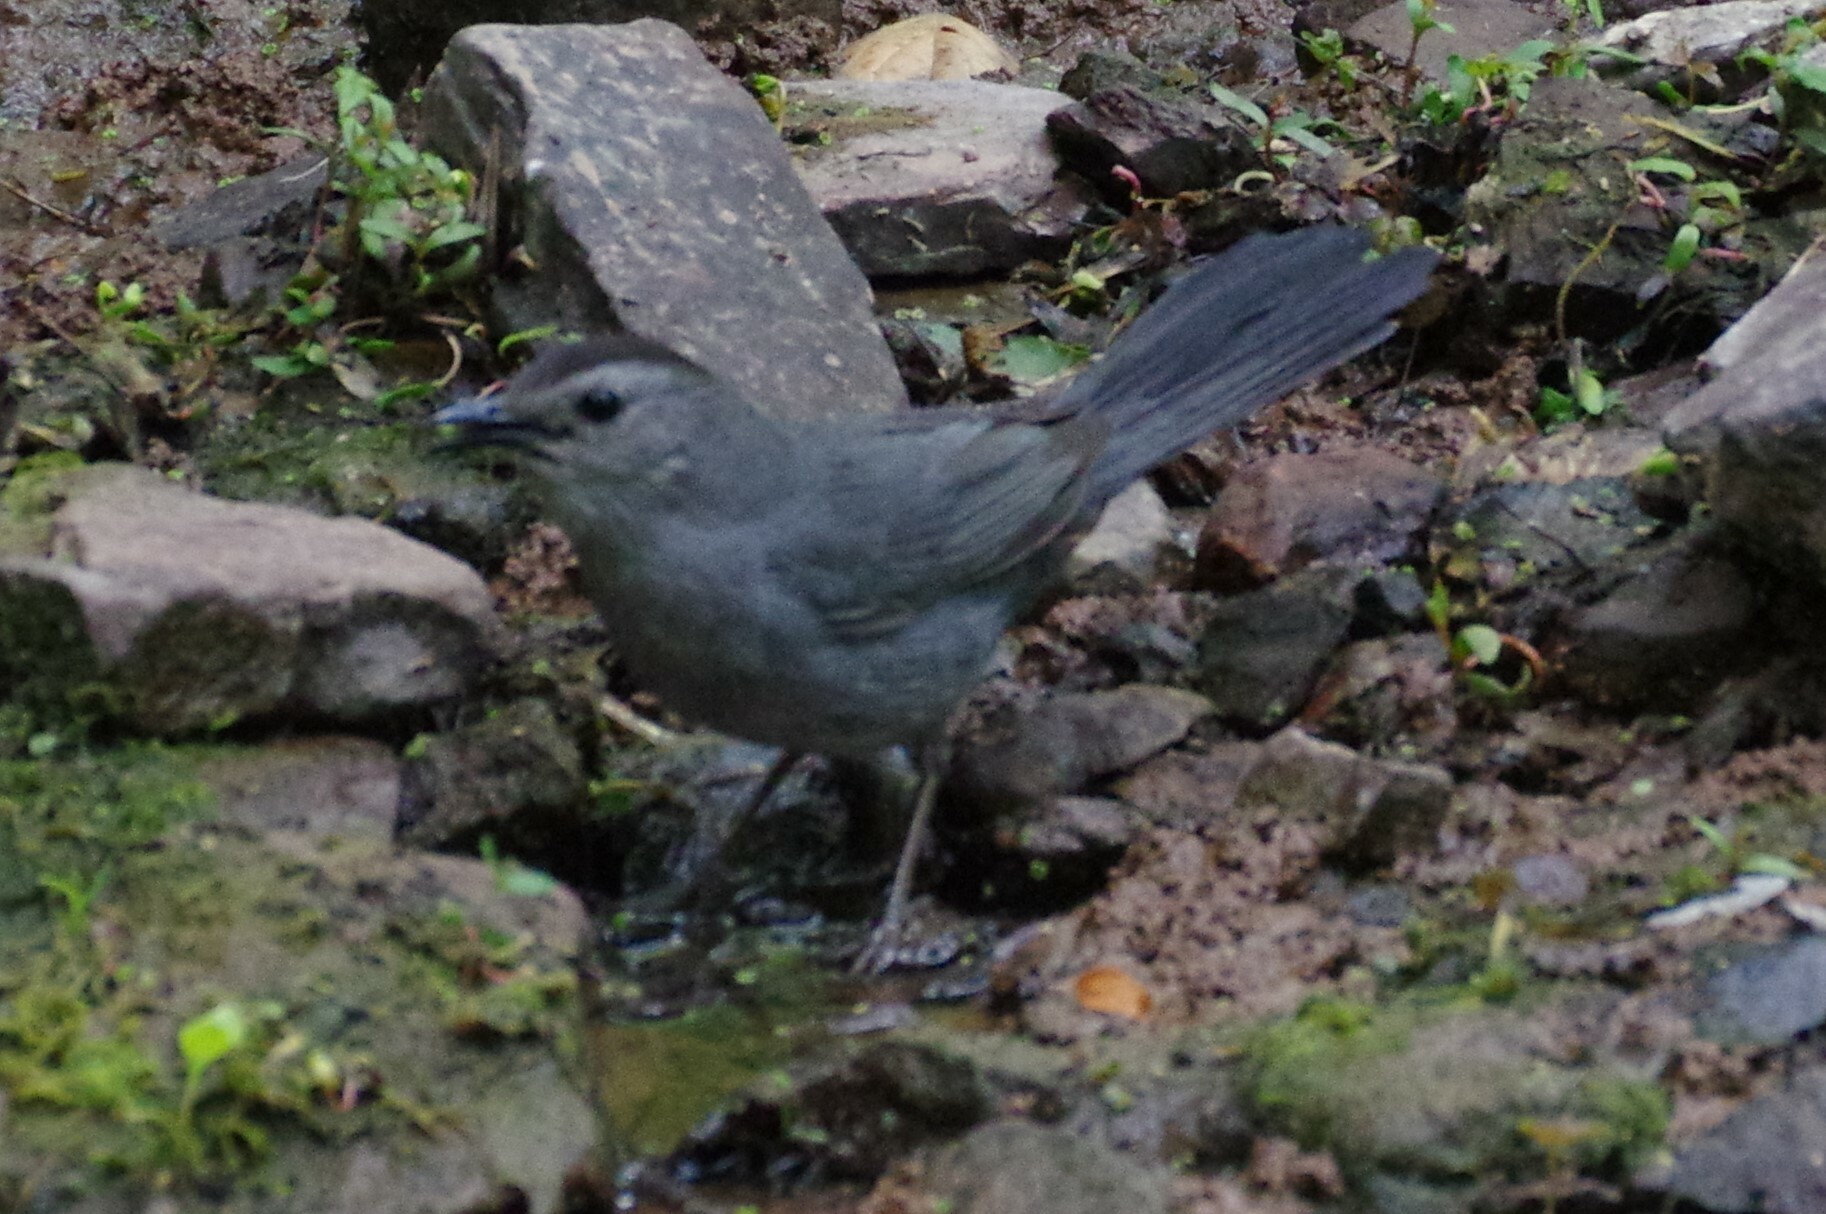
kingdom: Animalia
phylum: Chordata
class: Aves
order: Passeriformes
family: Mimidae
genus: Dumetella
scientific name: Dumetella carolinensis
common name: Gray catbird
